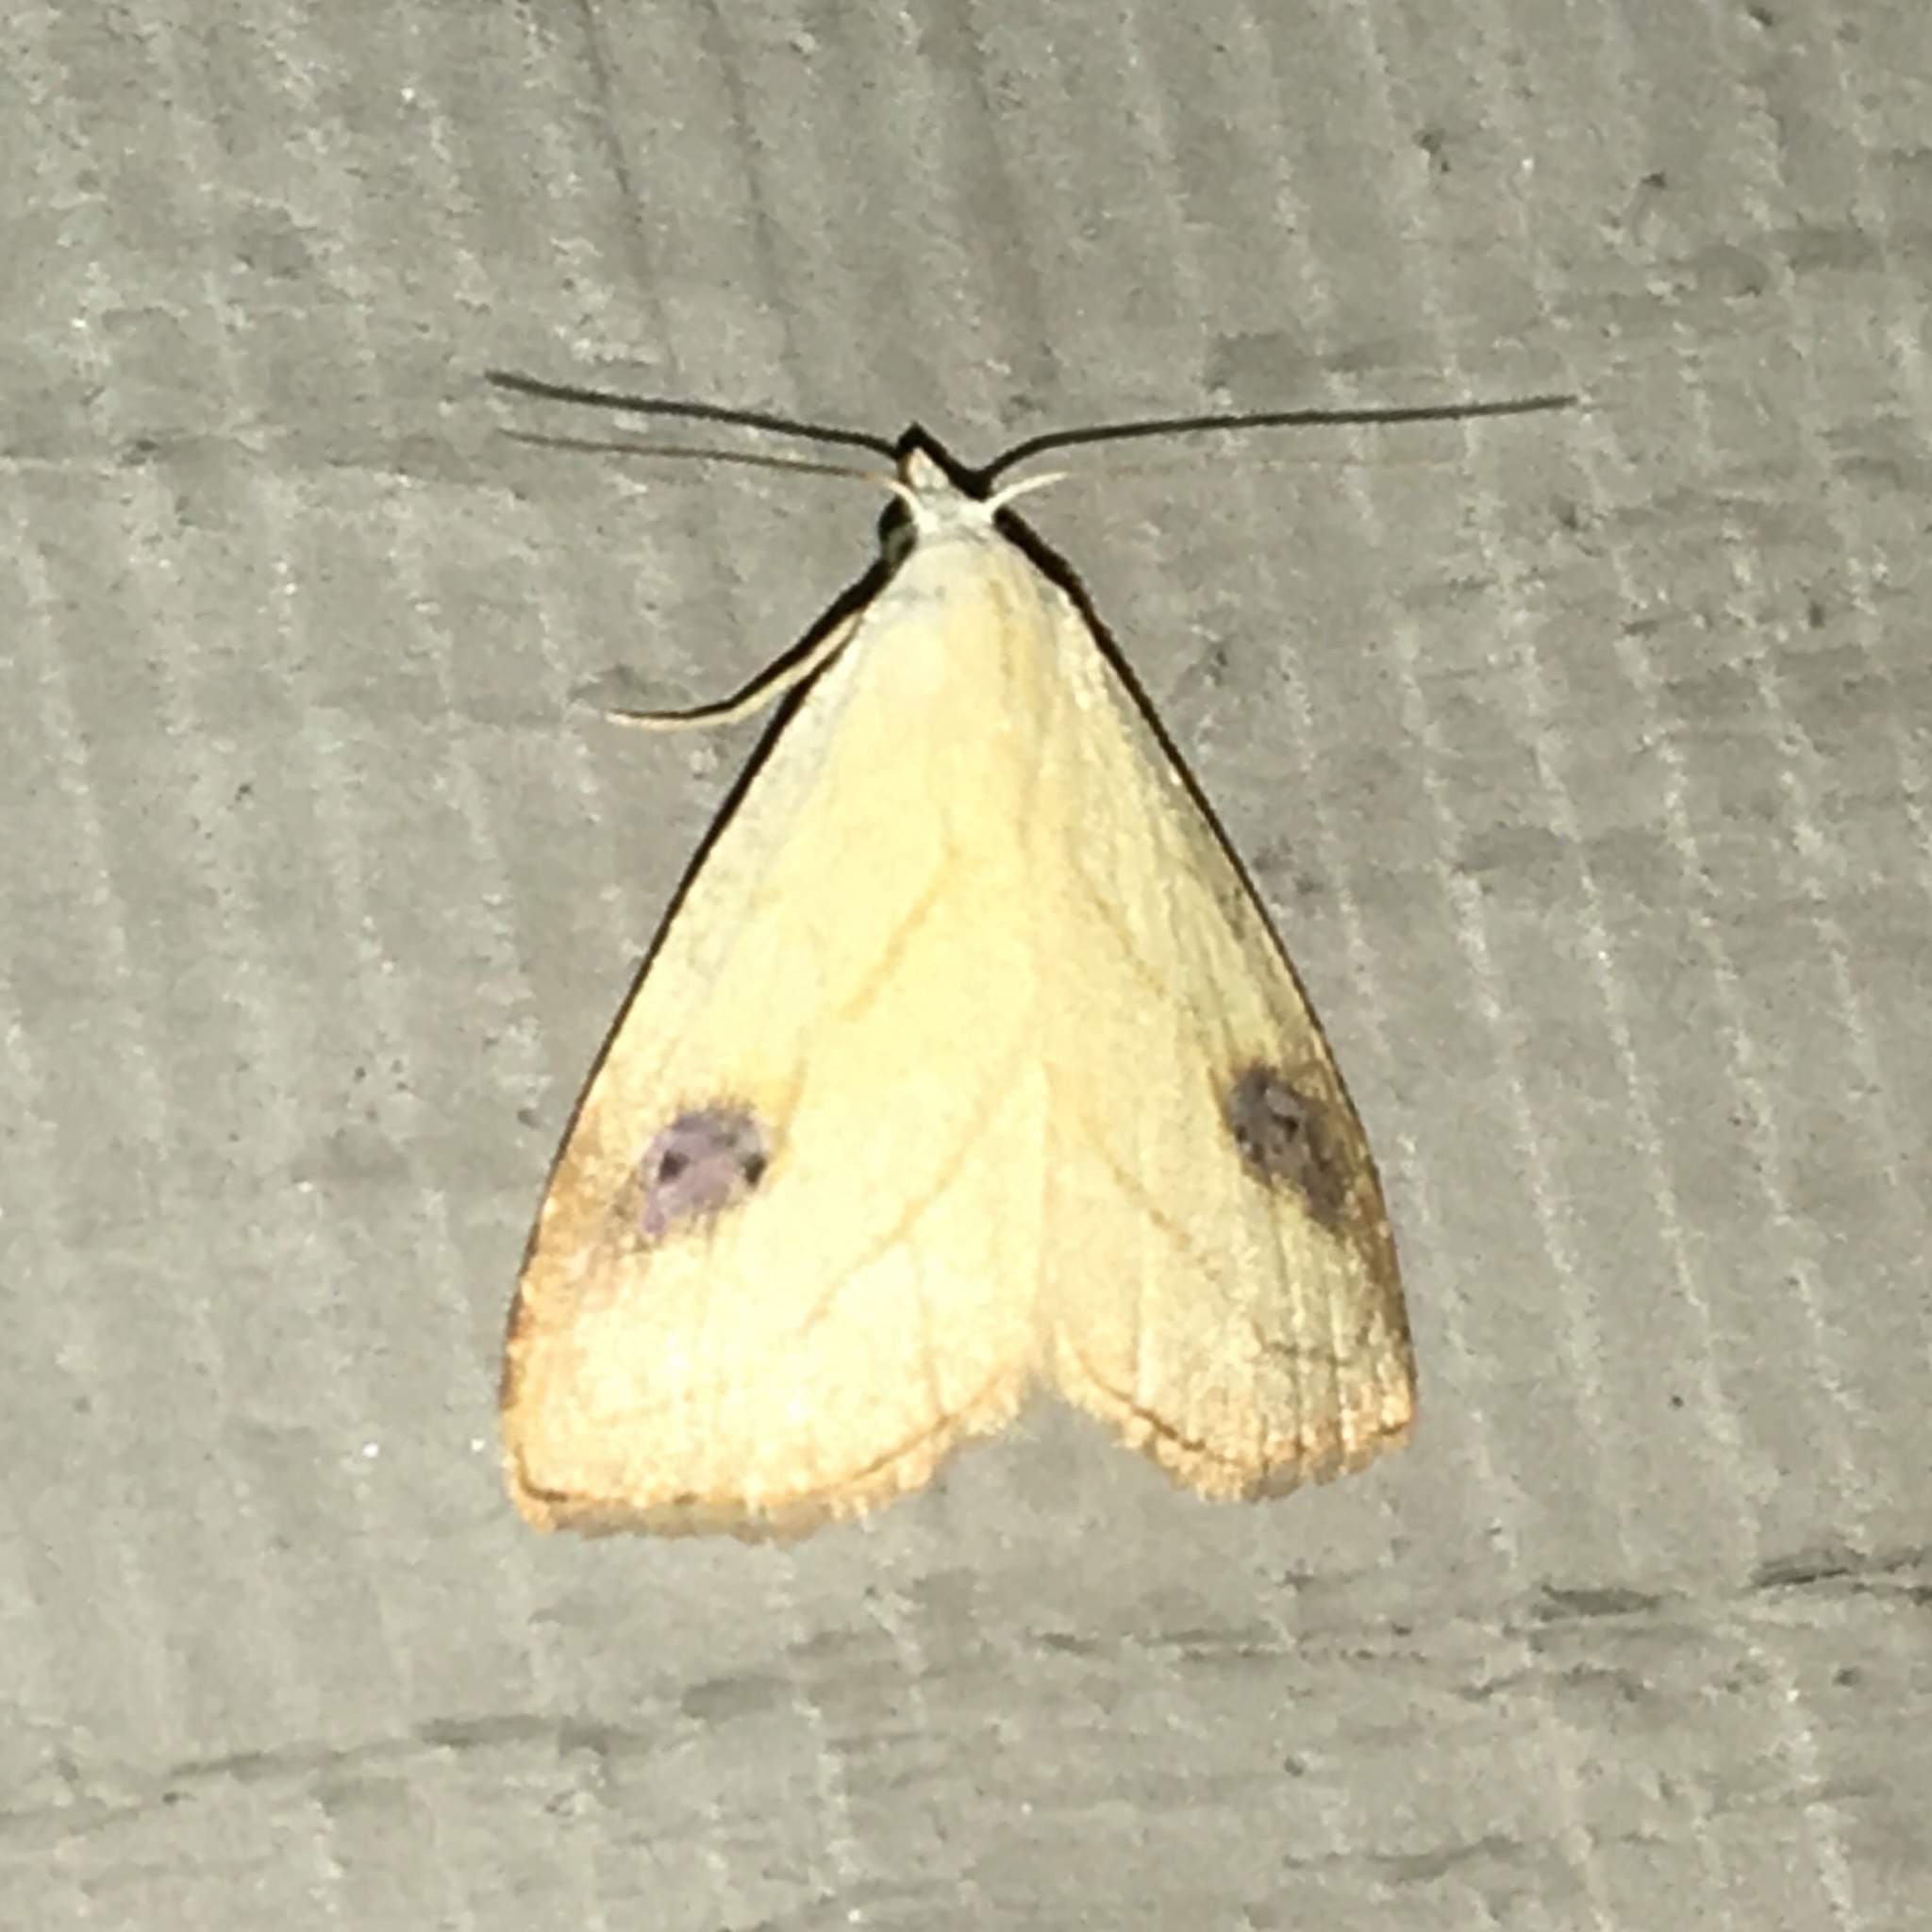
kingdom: Animalia
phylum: Arthropoda
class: Insecta
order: Lepidoptera
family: Erebidae
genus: Rivula
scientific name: Rivula propinqualis
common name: Spotted grass moth
